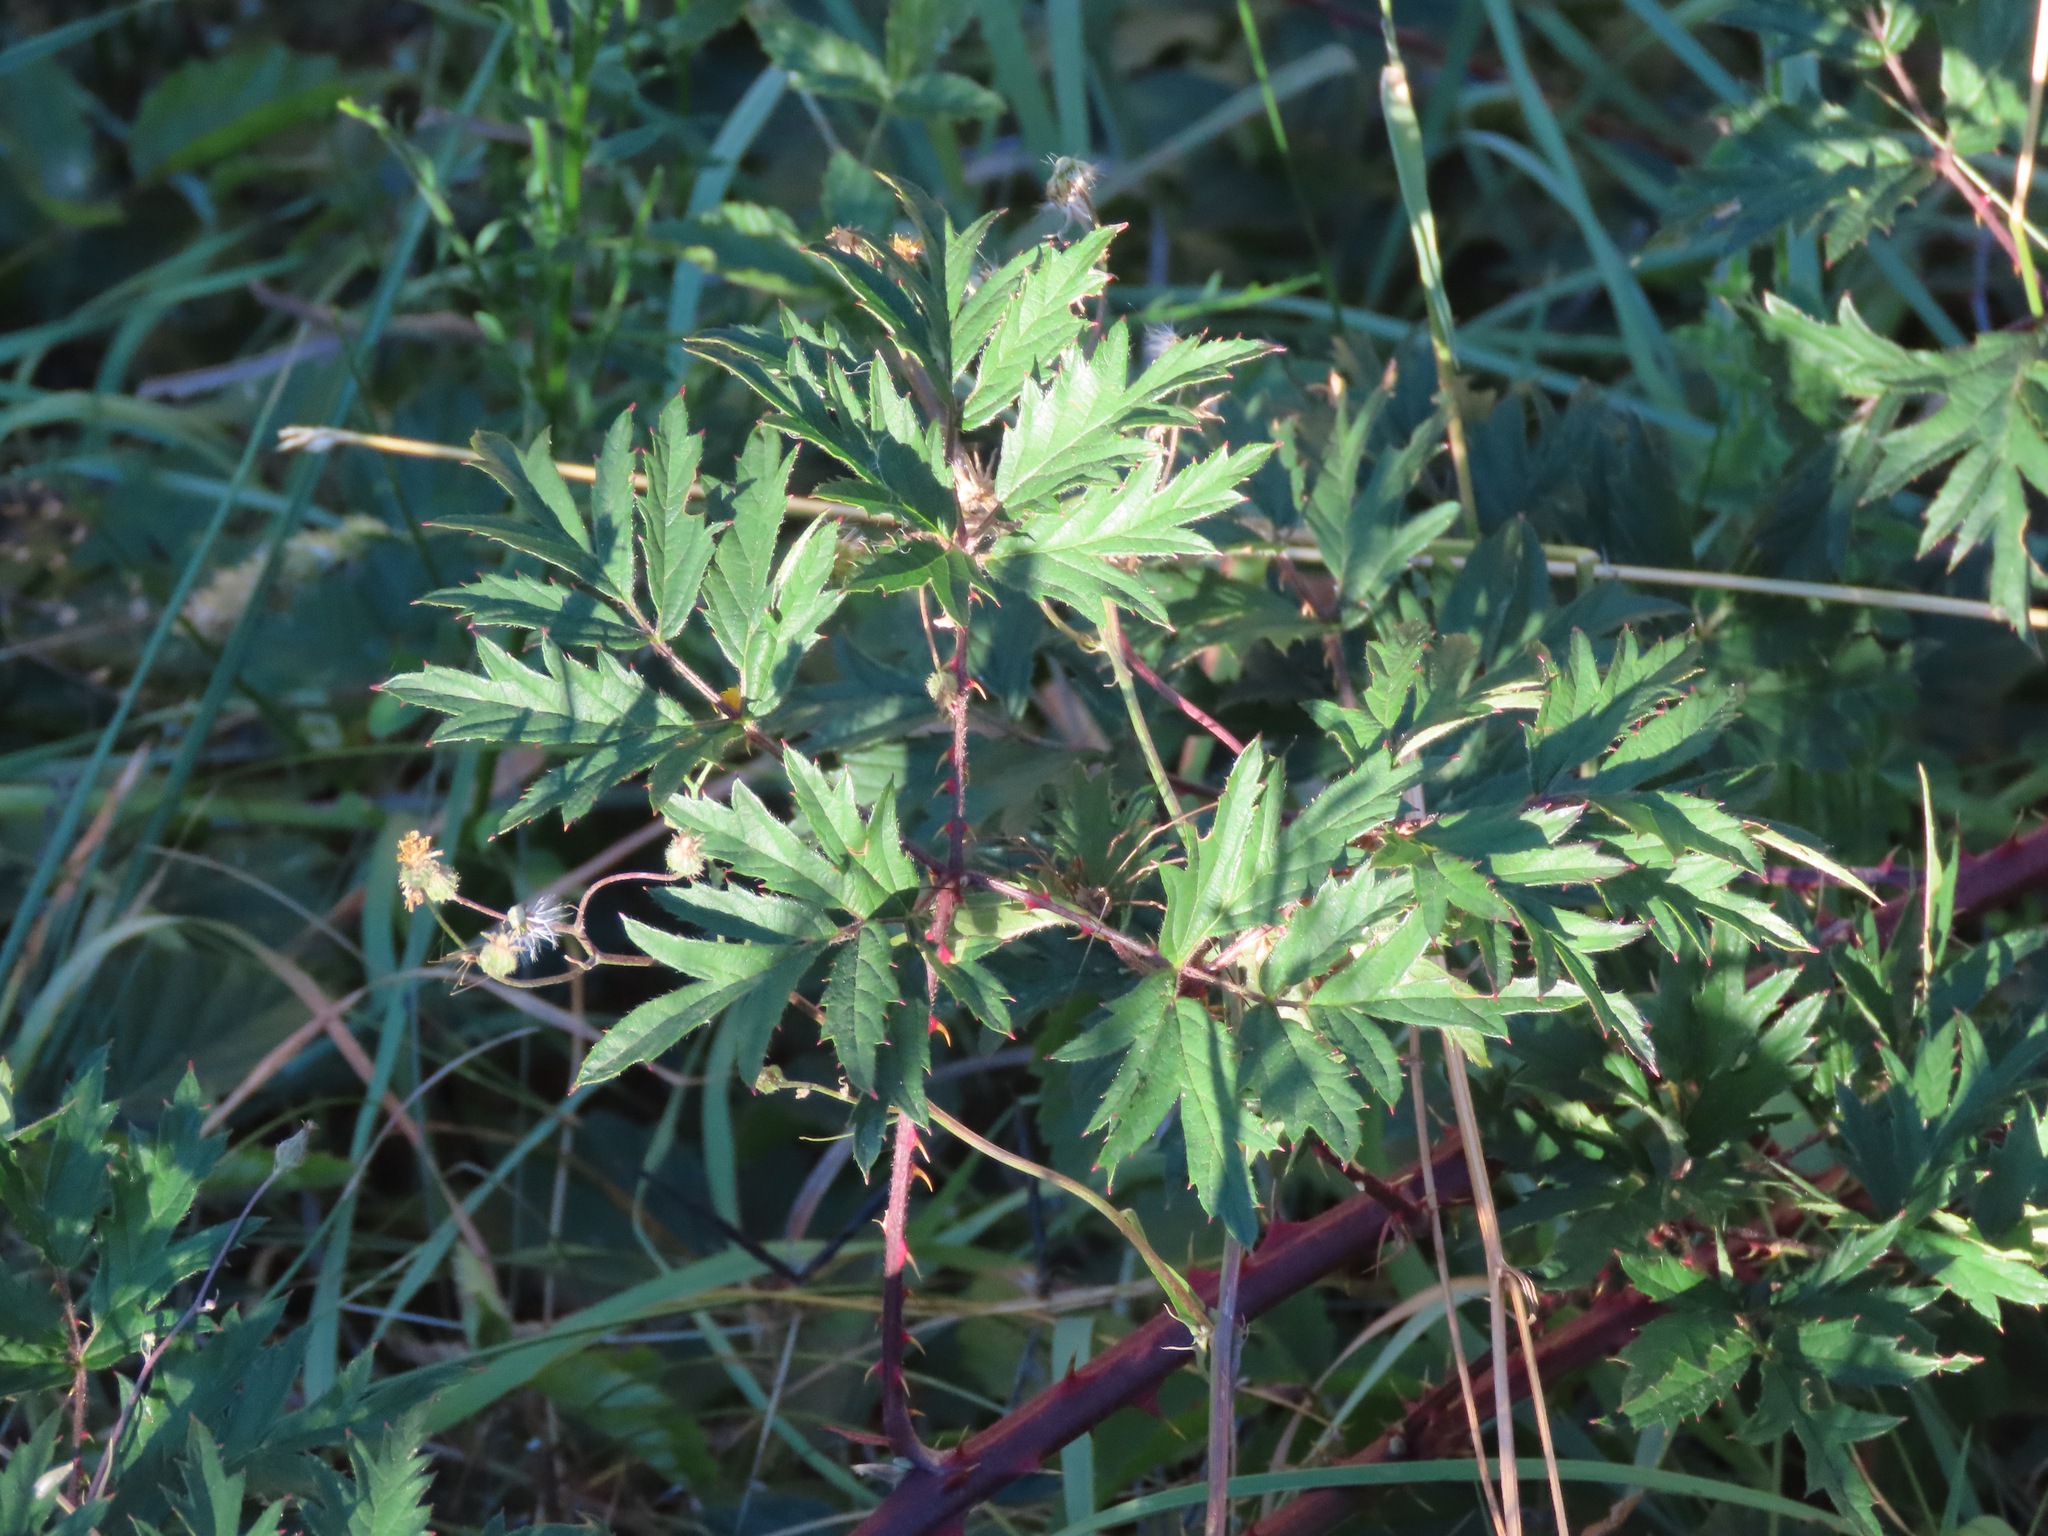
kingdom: Plantae
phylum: Tracheophyta
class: Magnoliopsida
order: Rosales
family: Rosaceae
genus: Rubus
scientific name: Rubus laciniatus
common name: Evergreen blackberry
